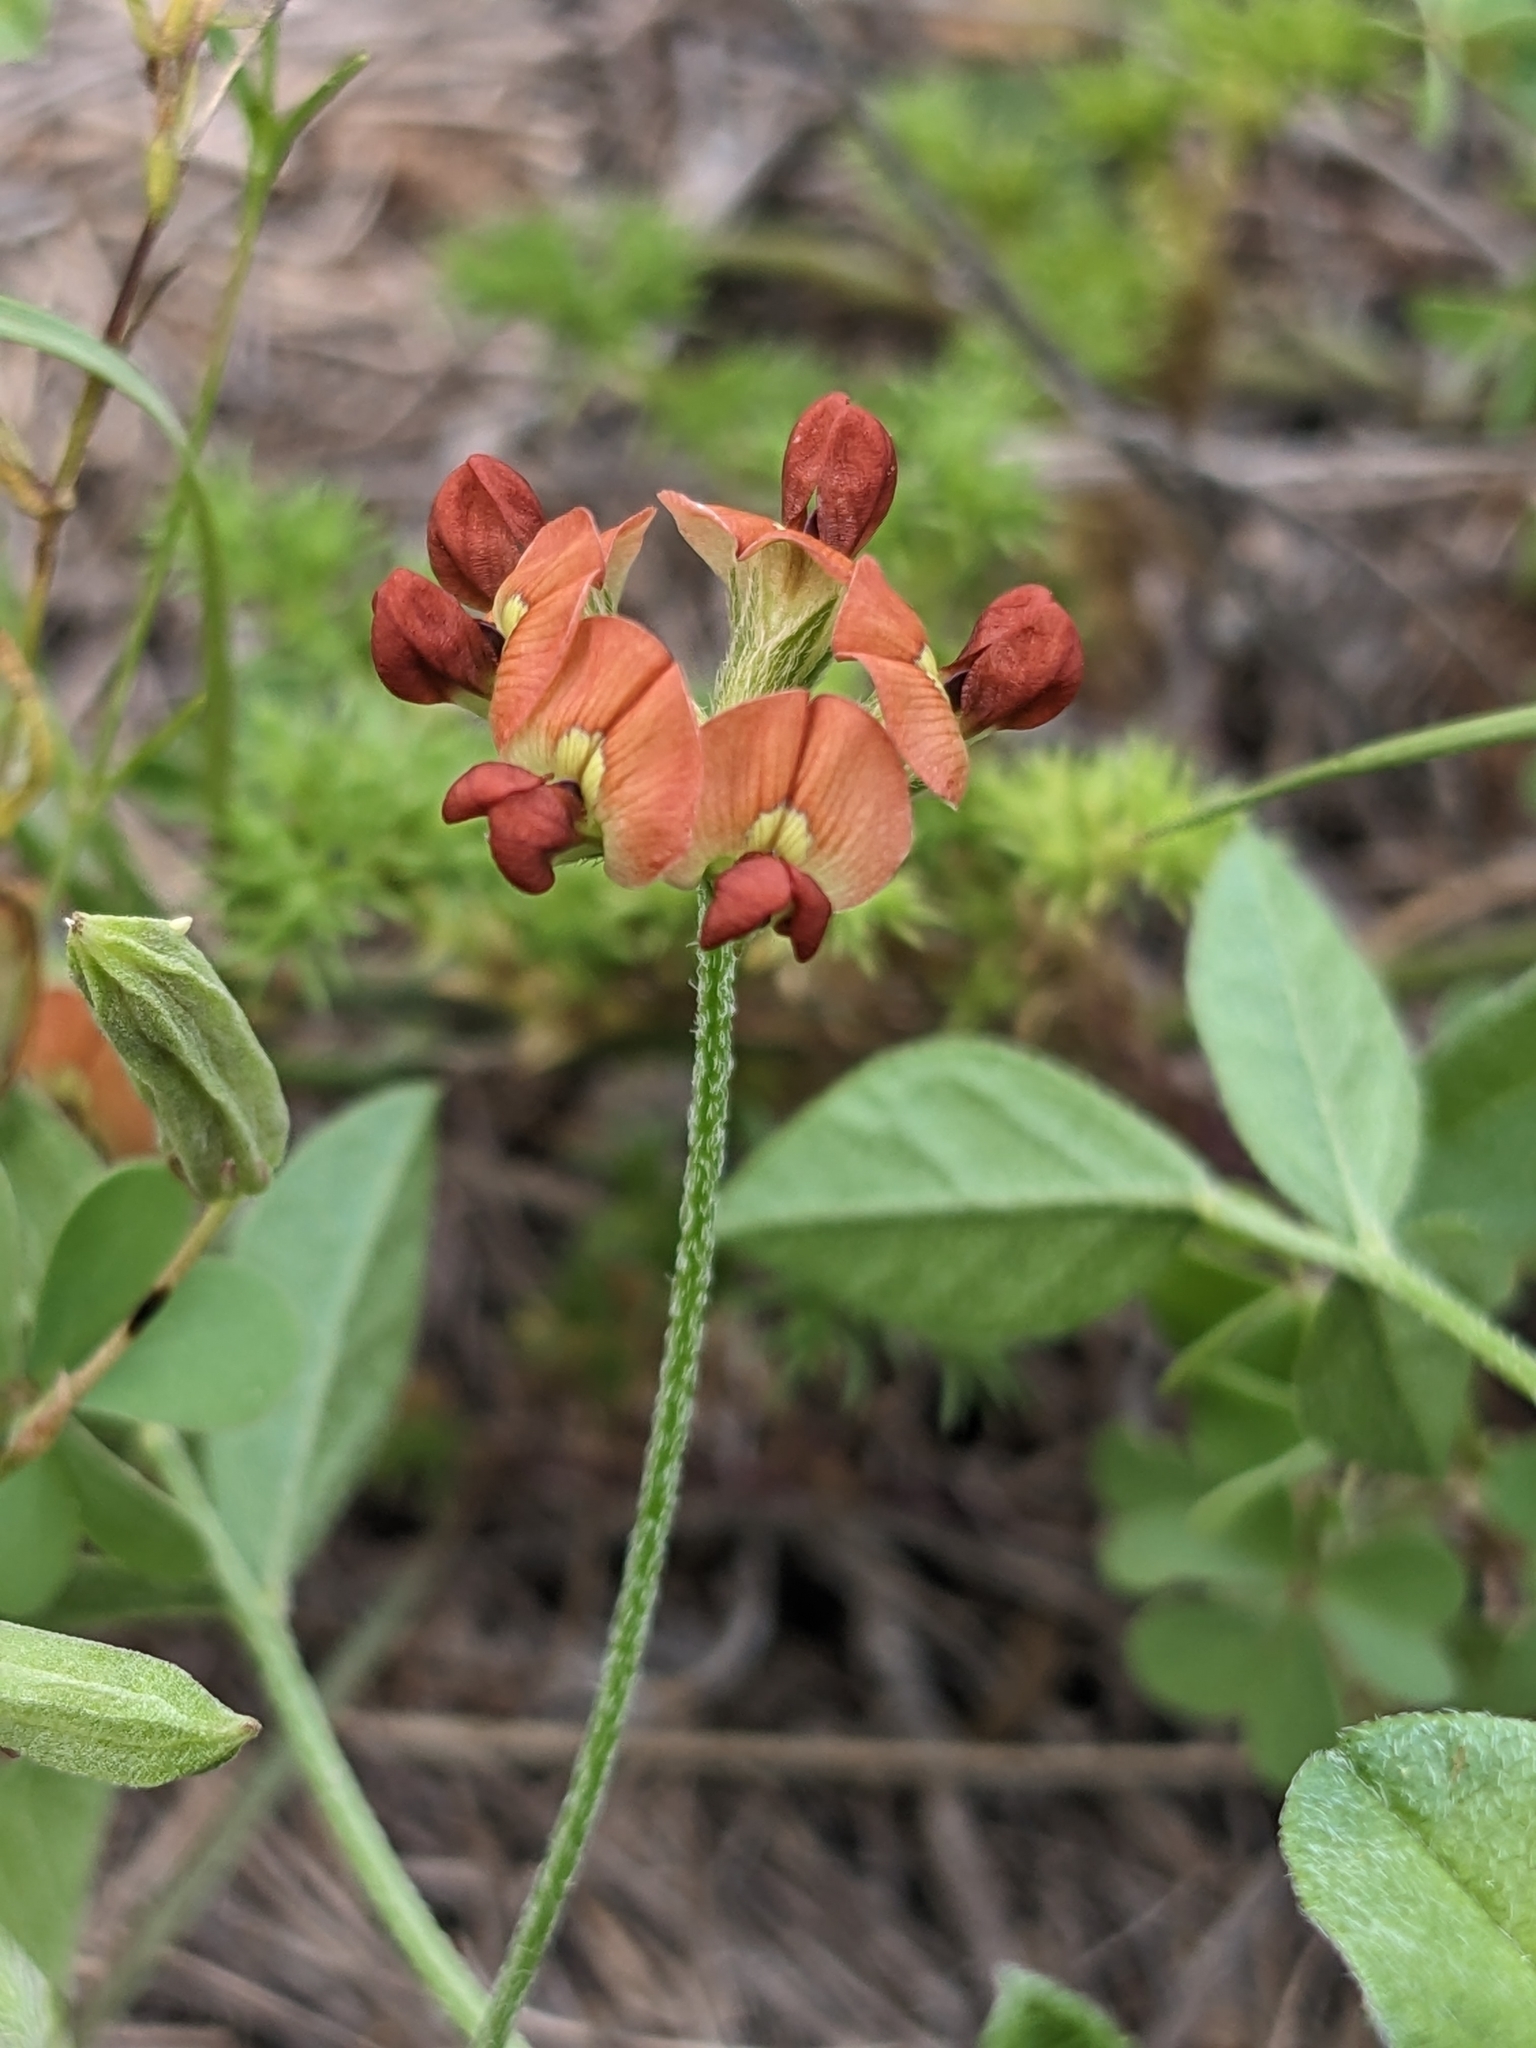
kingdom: Plantae
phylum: Tracheophyta
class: Magnoliopsida
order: Fabales
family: Fabaceae
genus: Pediomelum
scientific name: Pediomelum rhombifolium
